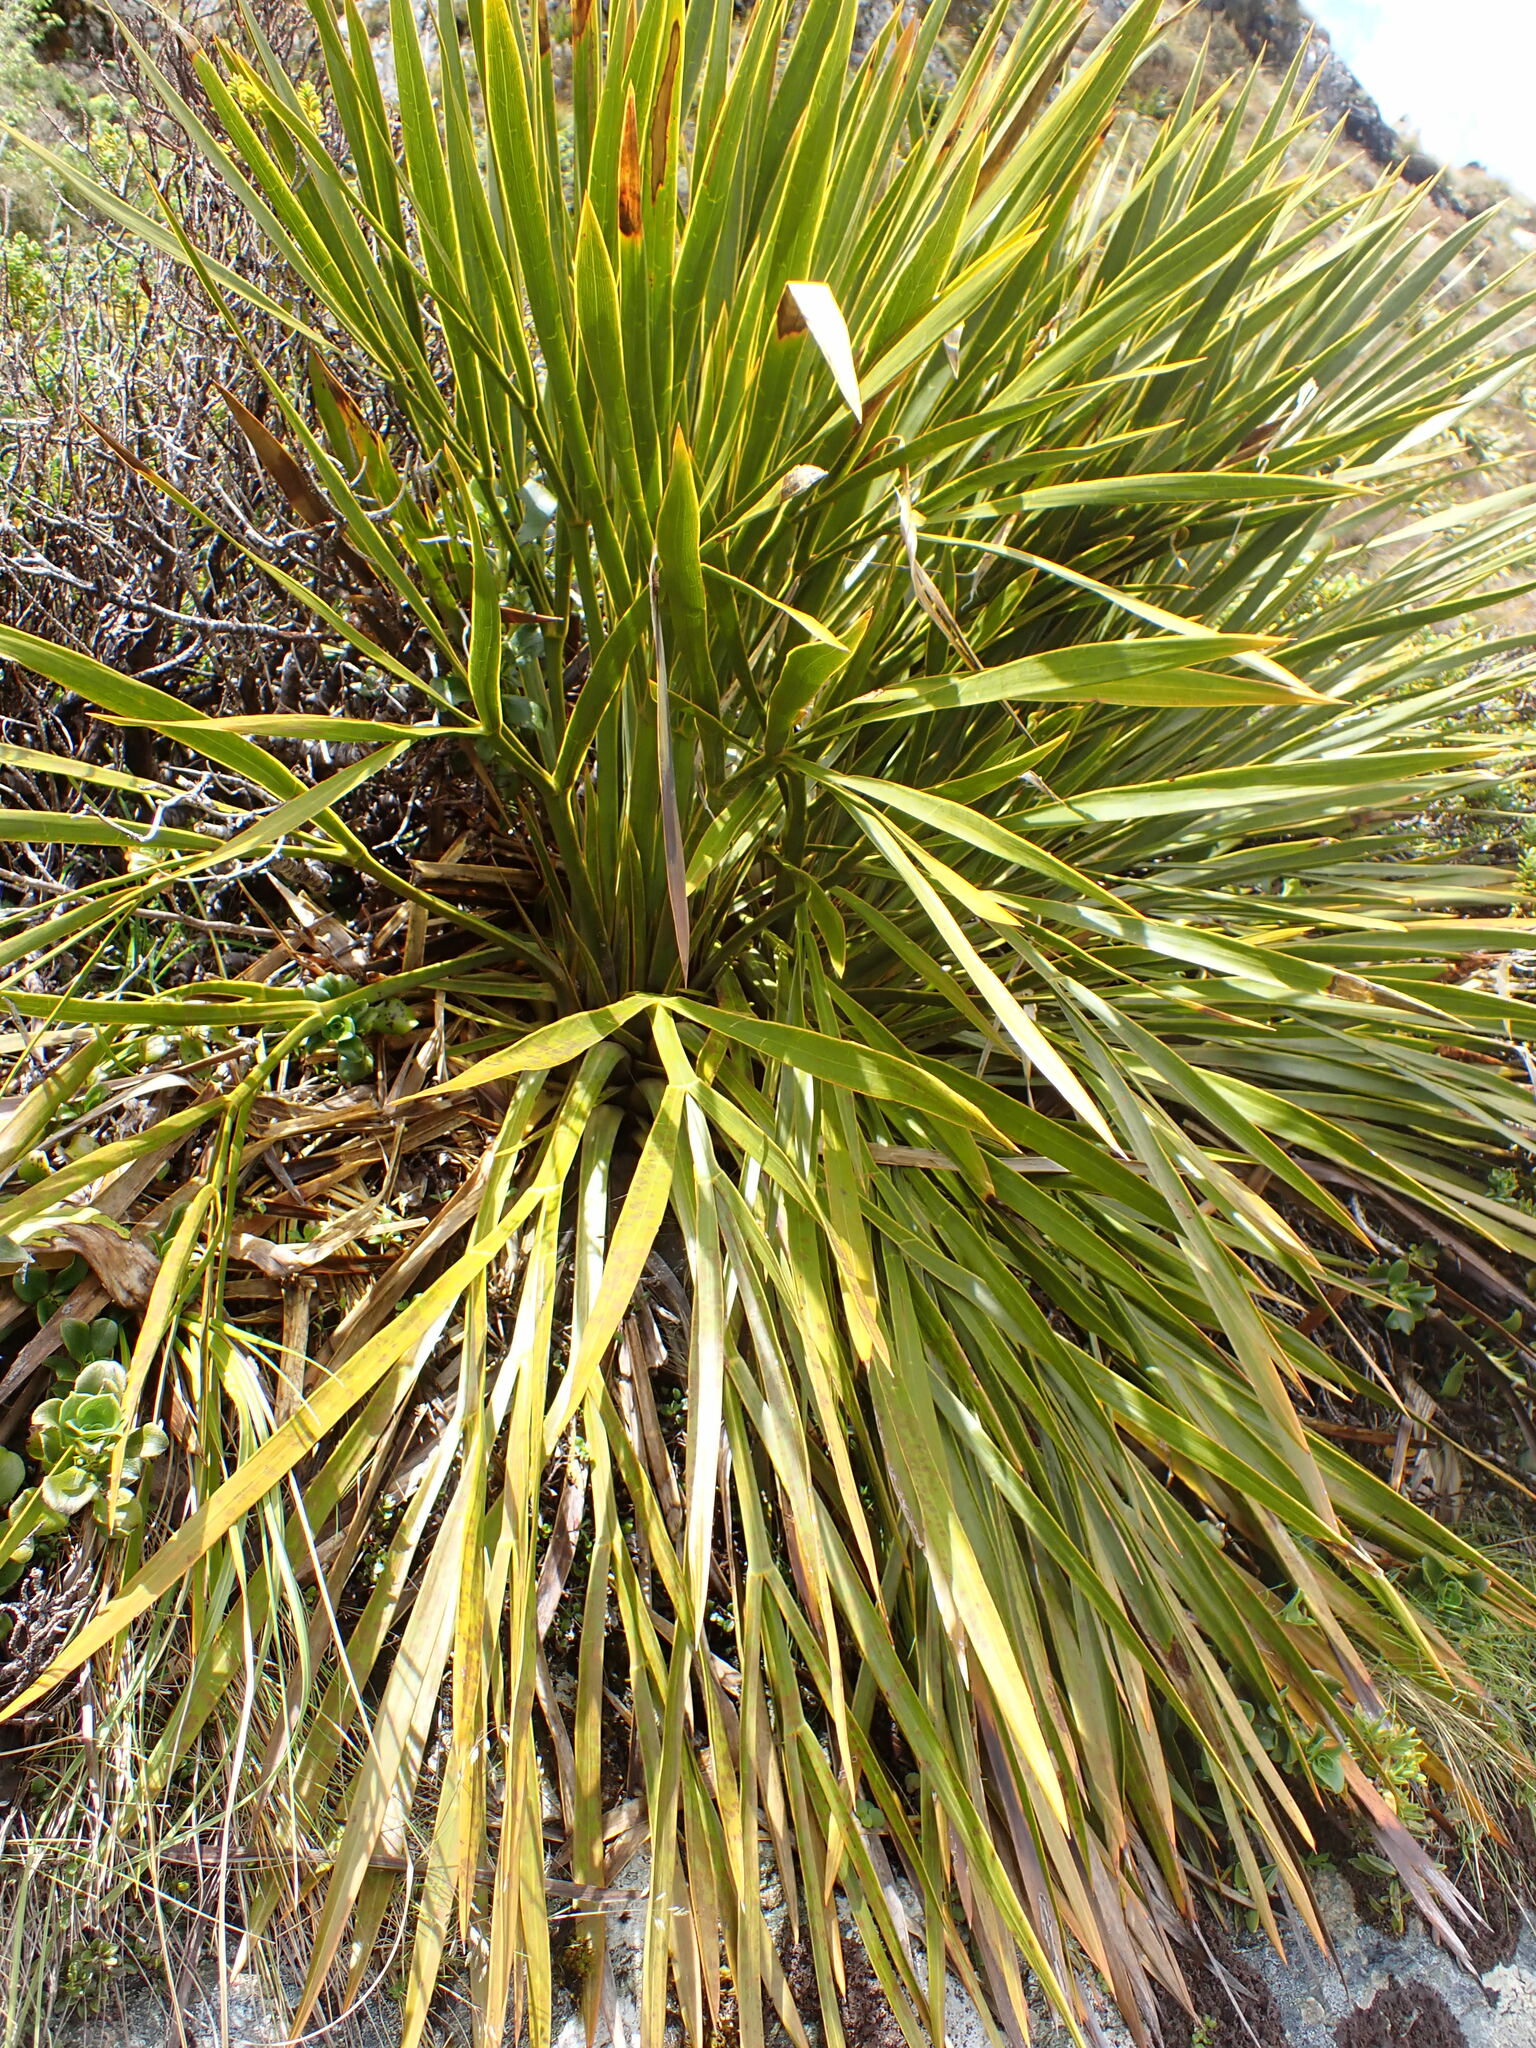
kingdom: Plantae
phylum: Tracheophyta
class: Magnoliopsida
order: Apiales
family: Apiaceae
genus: Aciphylla
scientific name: Aciphylla horrida
